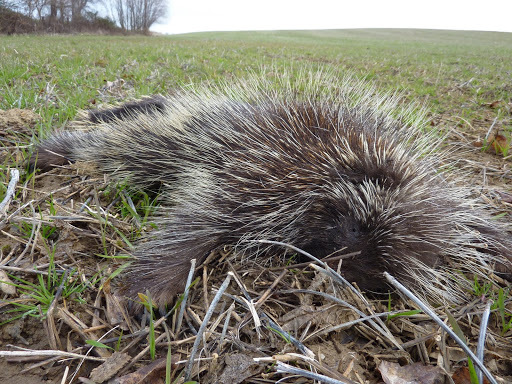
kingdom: Animalia
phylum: Chordata
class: Mammalia
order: Rodentia
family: Erethizontidae
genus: Erethizon
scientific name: Erethizon dorsatus
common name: North american porcupine
